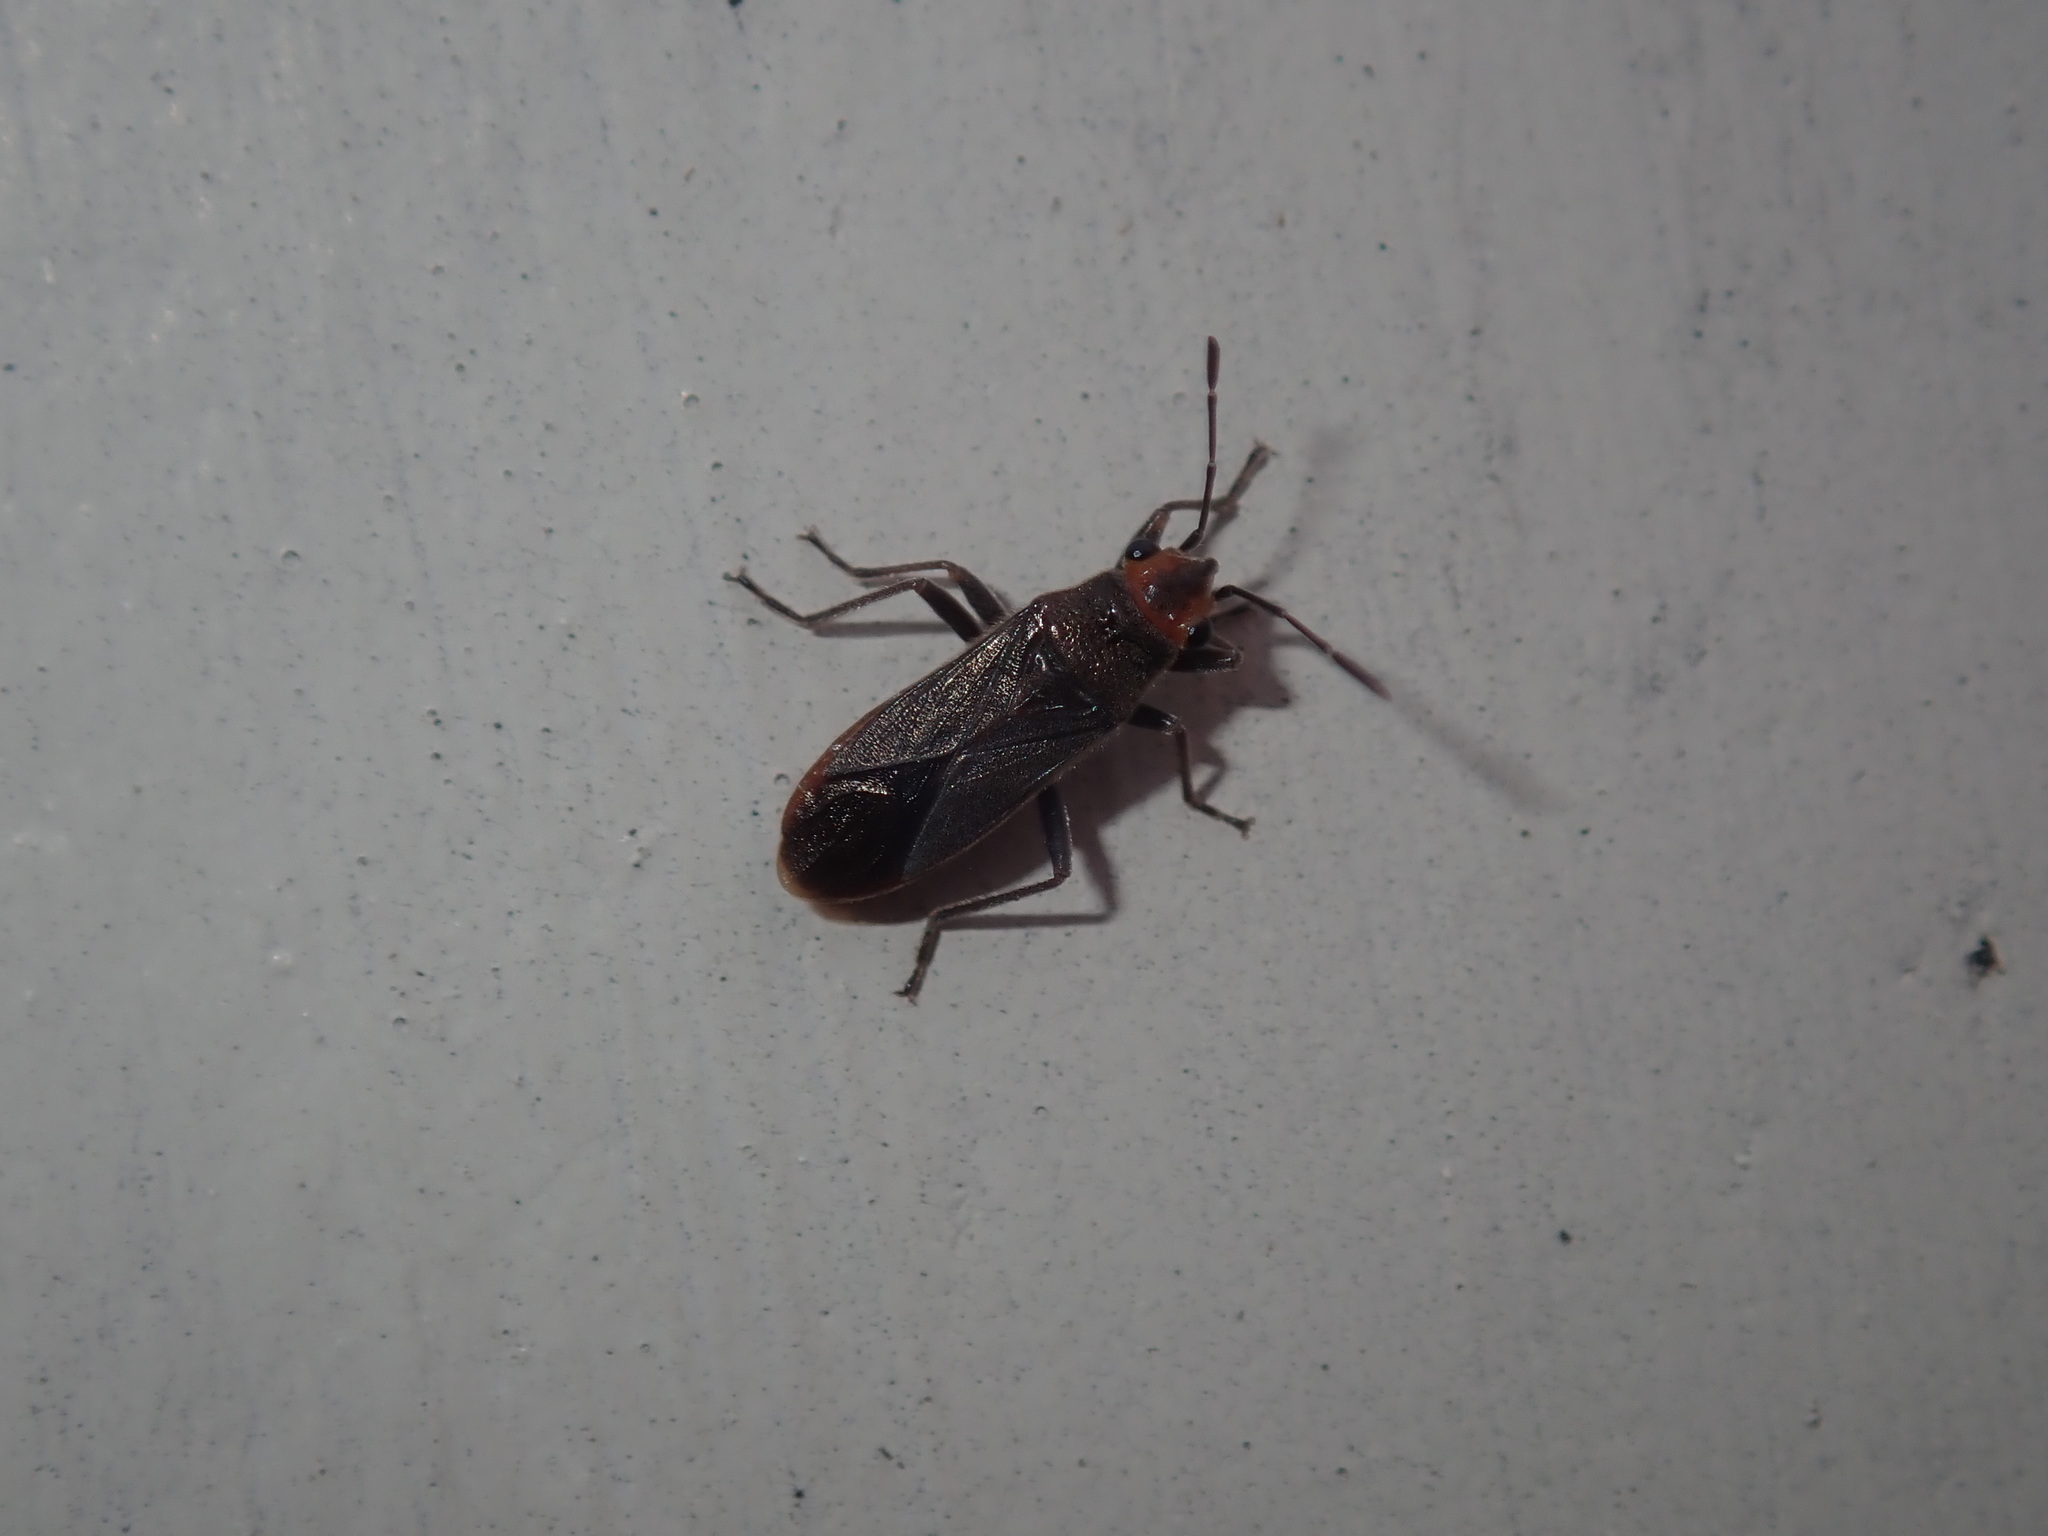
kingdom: Animalia
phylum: Arthropoda
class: Insecta
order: Hemiptera
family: Lygaeidae
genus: Arocatus
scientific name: Arocatus aenescens
